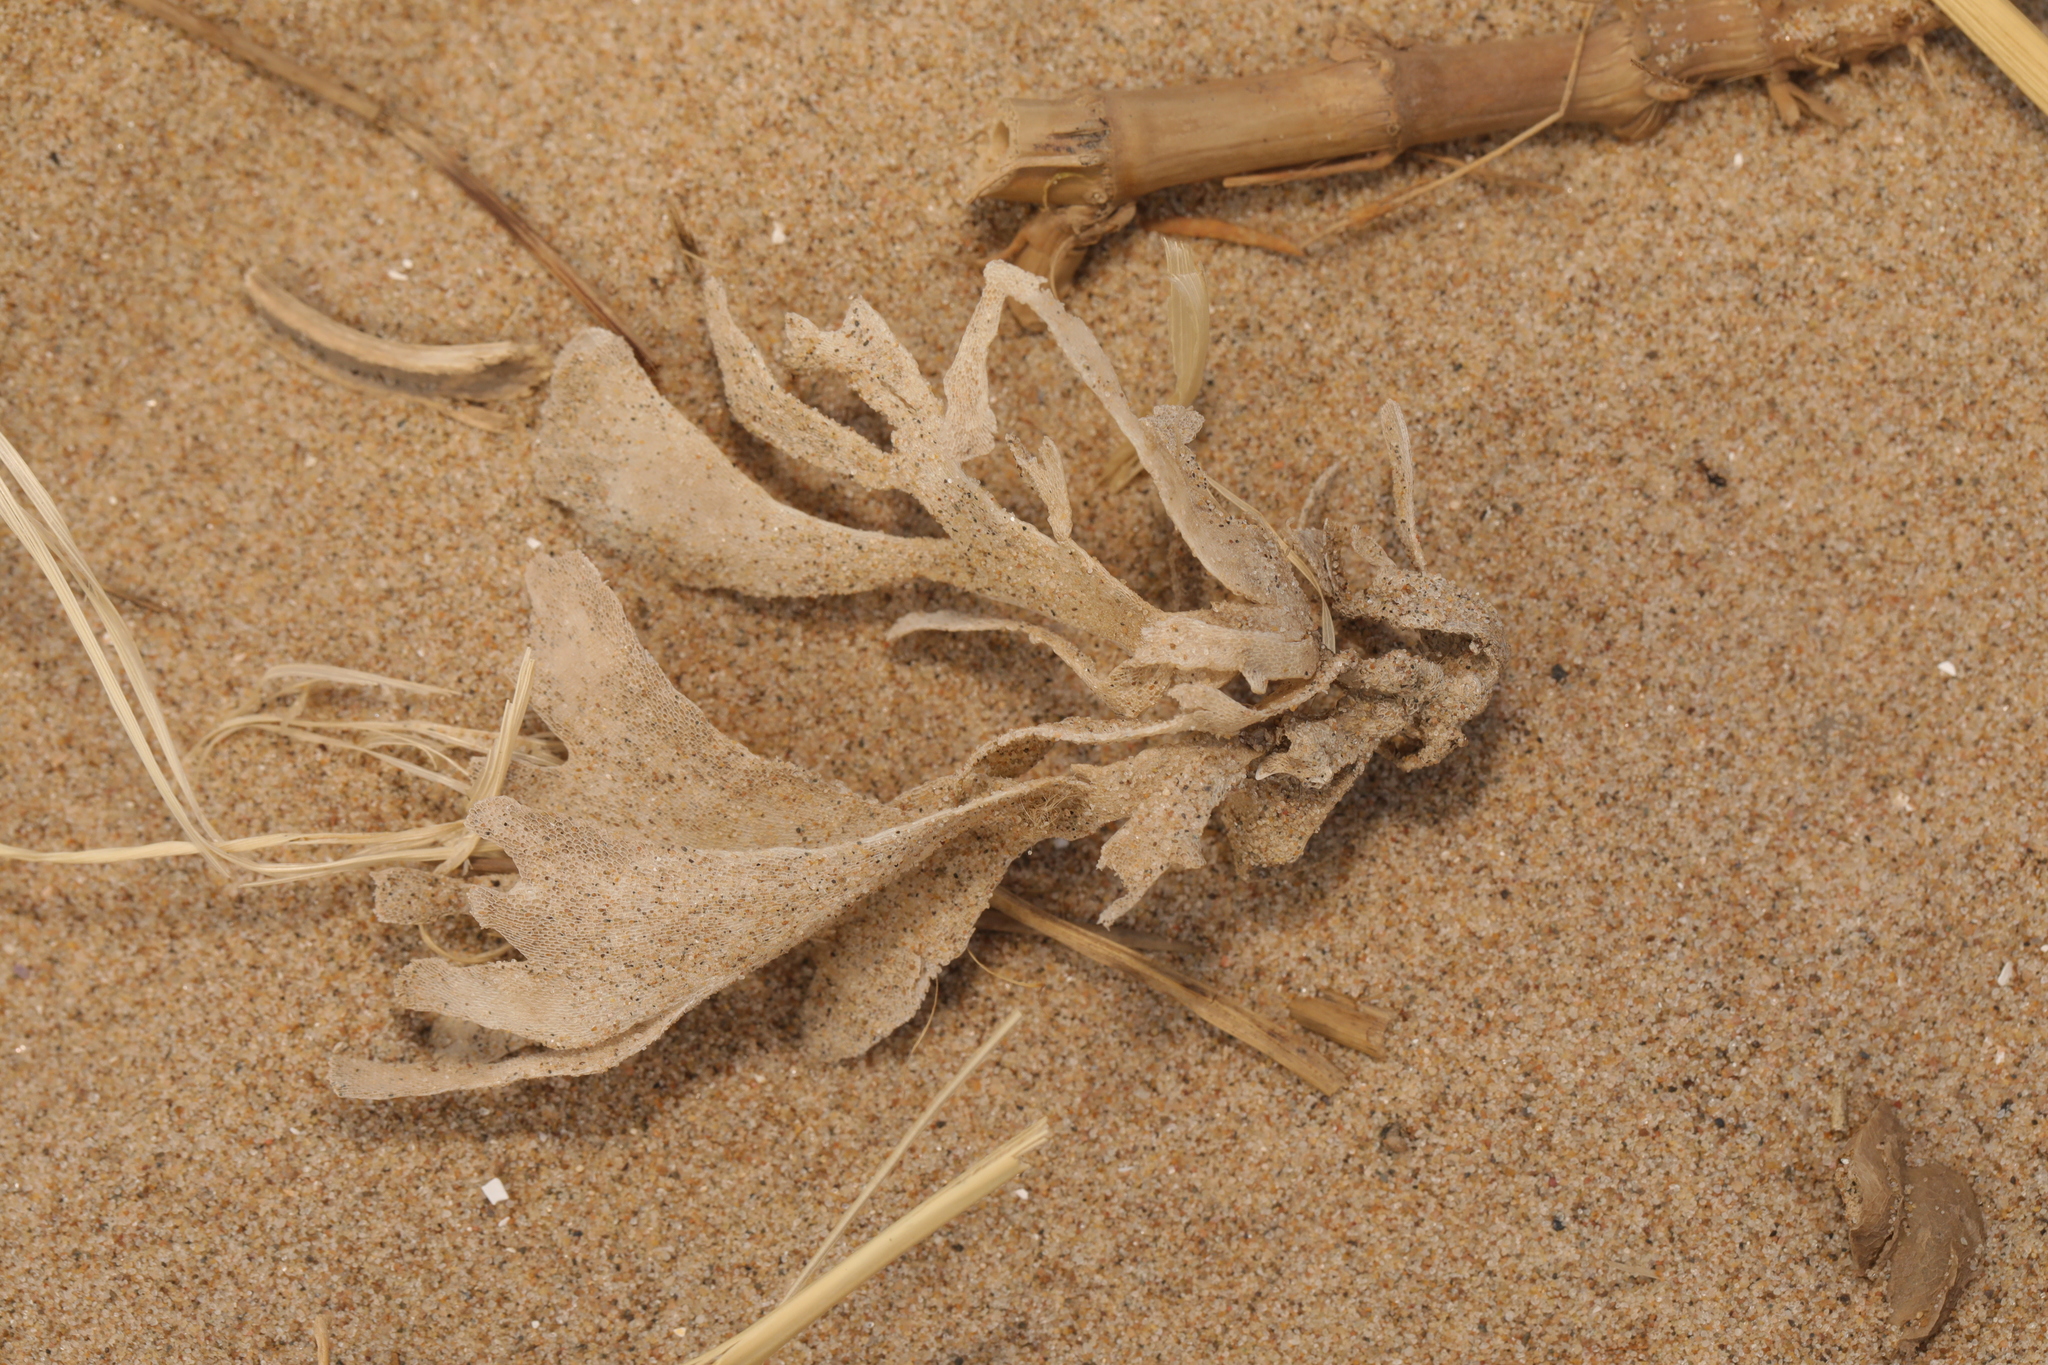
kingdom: Animalia
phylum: Bryozoa
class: Gymnolaemata
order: Cheilostomatida
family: Flustridae
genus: Flustra
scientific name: Flustra foliacea
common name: Hornwrack
